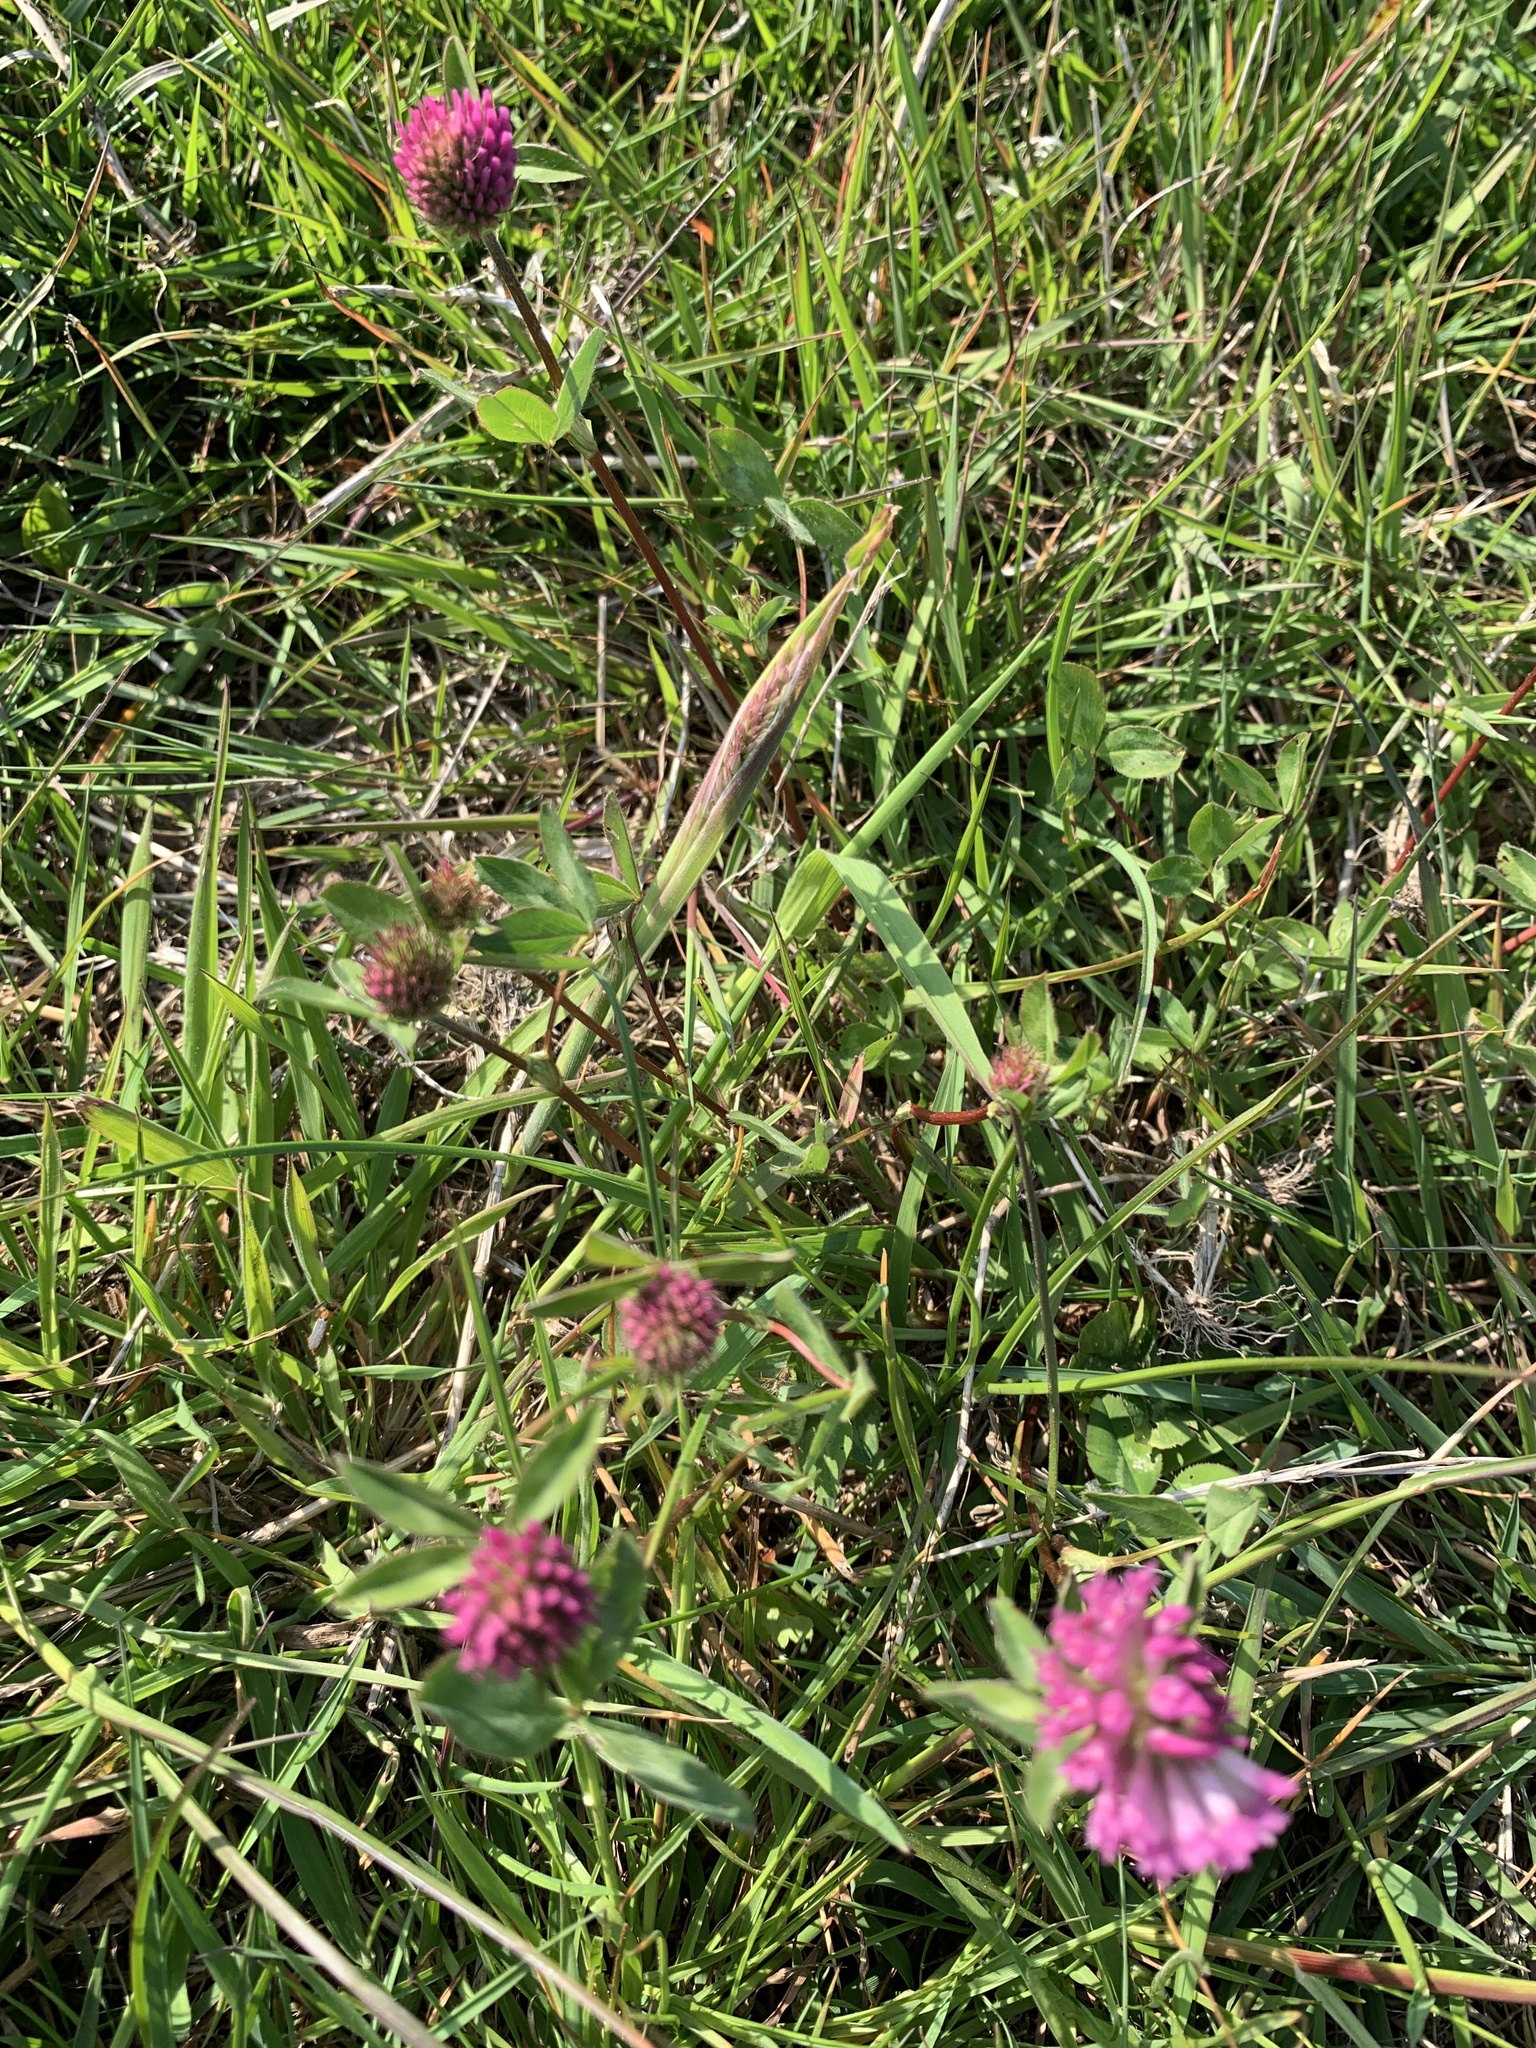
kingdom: Plantae
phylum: Tracheophyta
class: Magnoliopsida
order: Fabales
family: Fabaceae
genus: Trifolium
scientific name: Trifolium pratense
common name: Red clover
